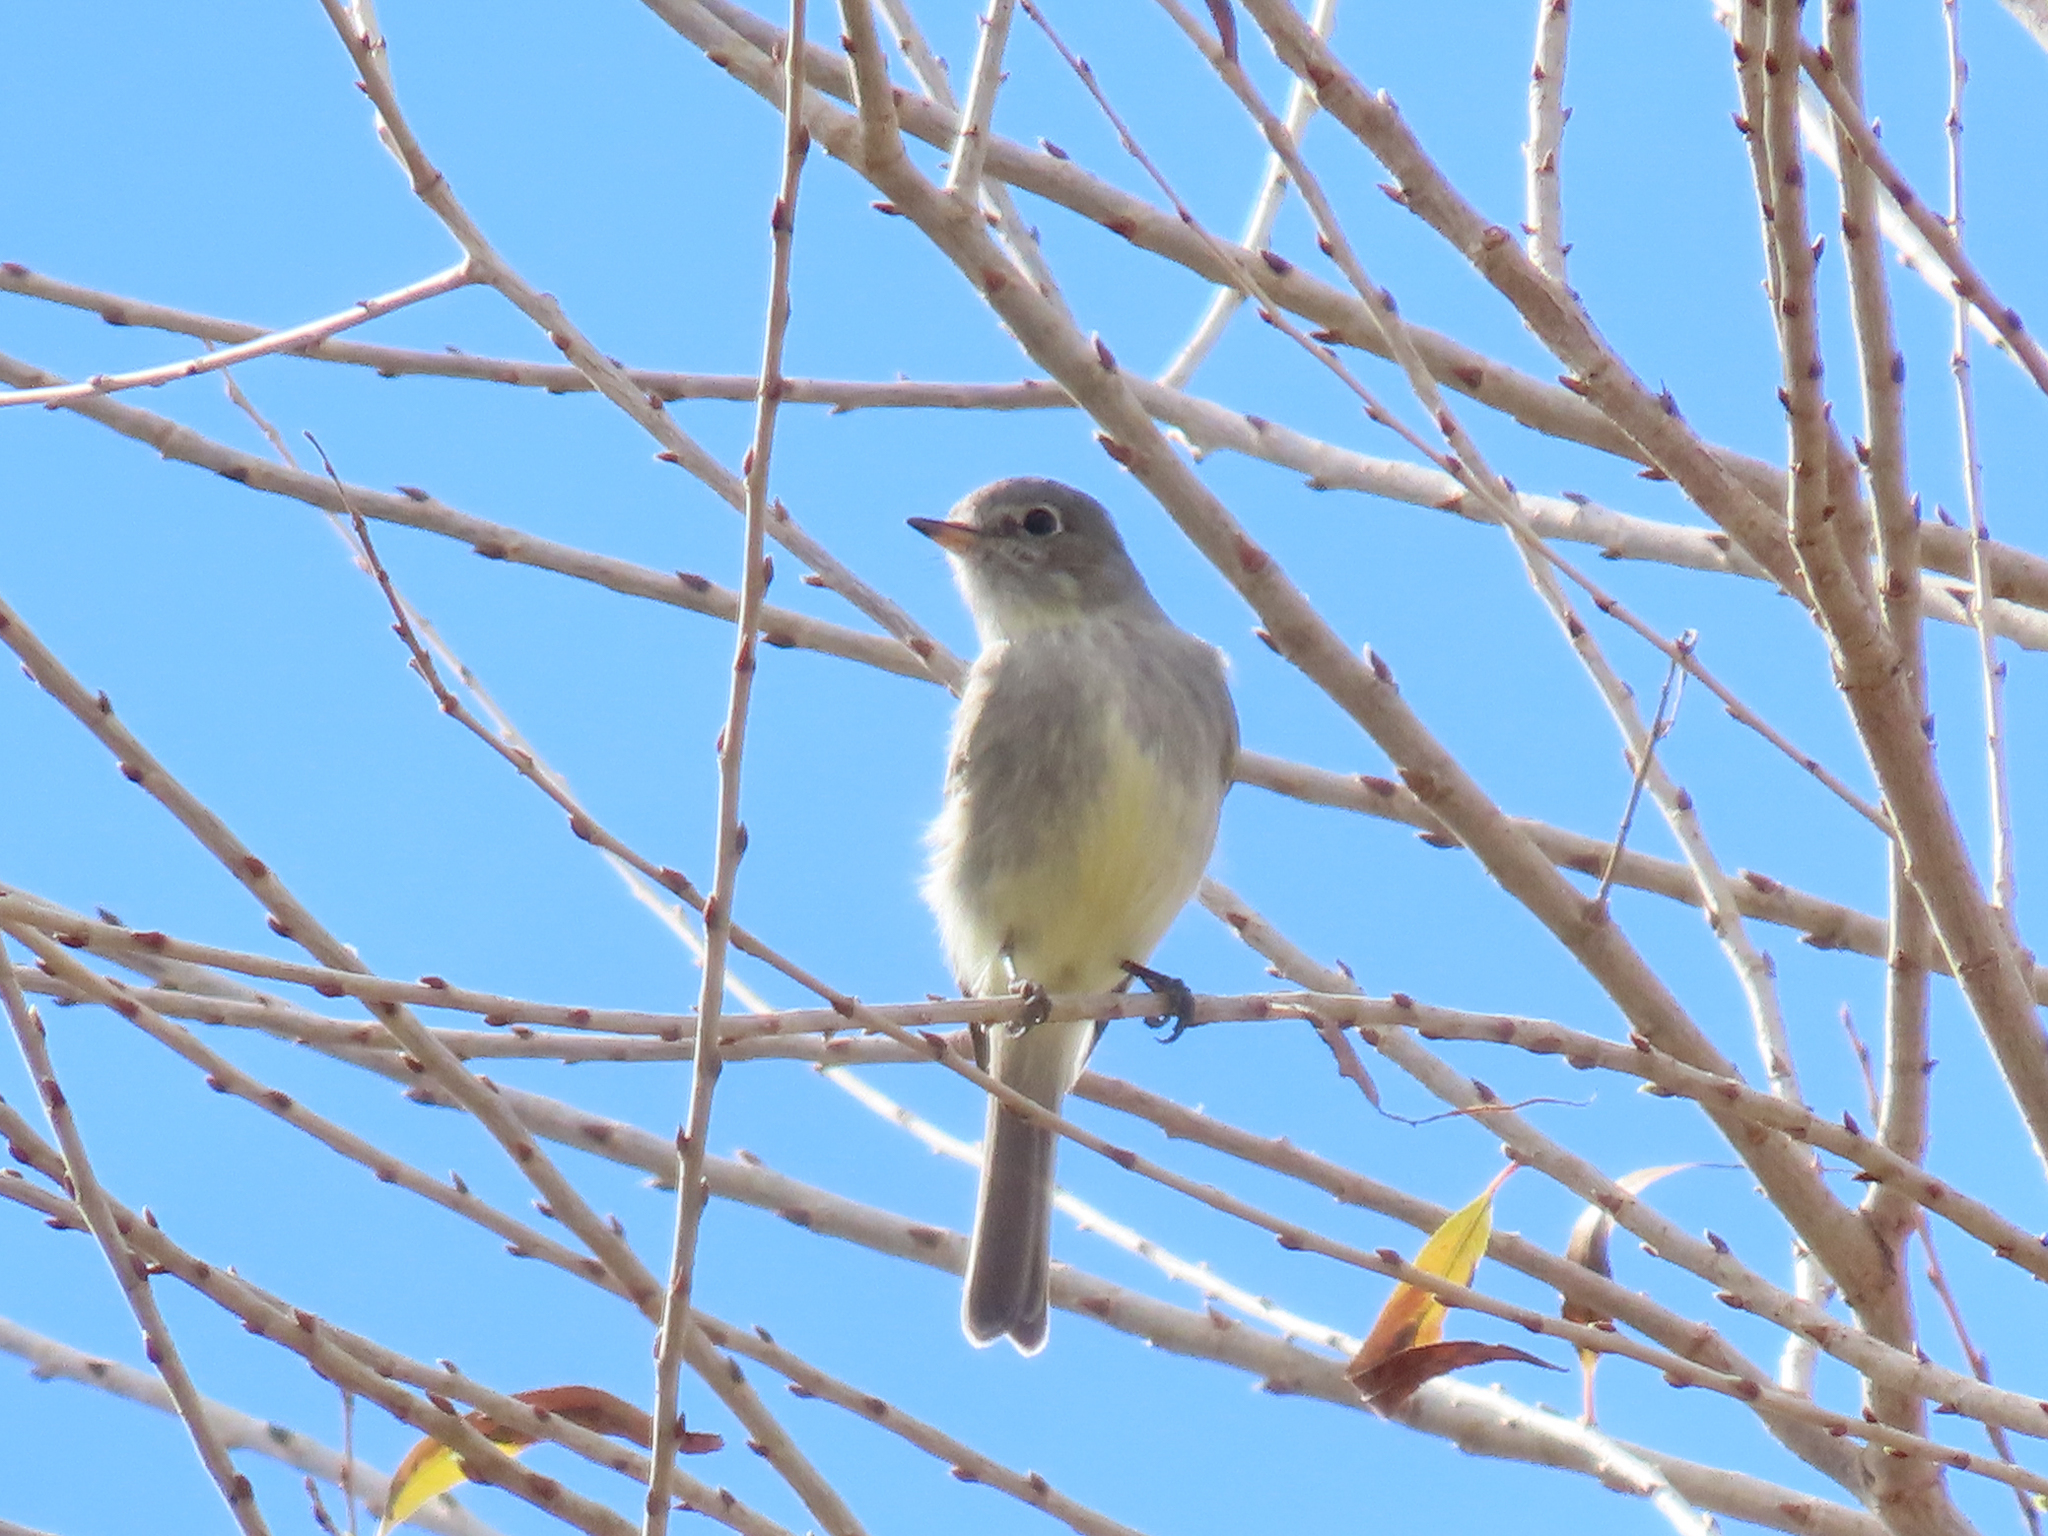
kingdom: Animalia
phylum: Chordata
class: Aves
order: Passeriformes
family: Tyrannidae
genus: Empidonax
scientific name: Empidonax wrightii
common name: Gray flycatcher
